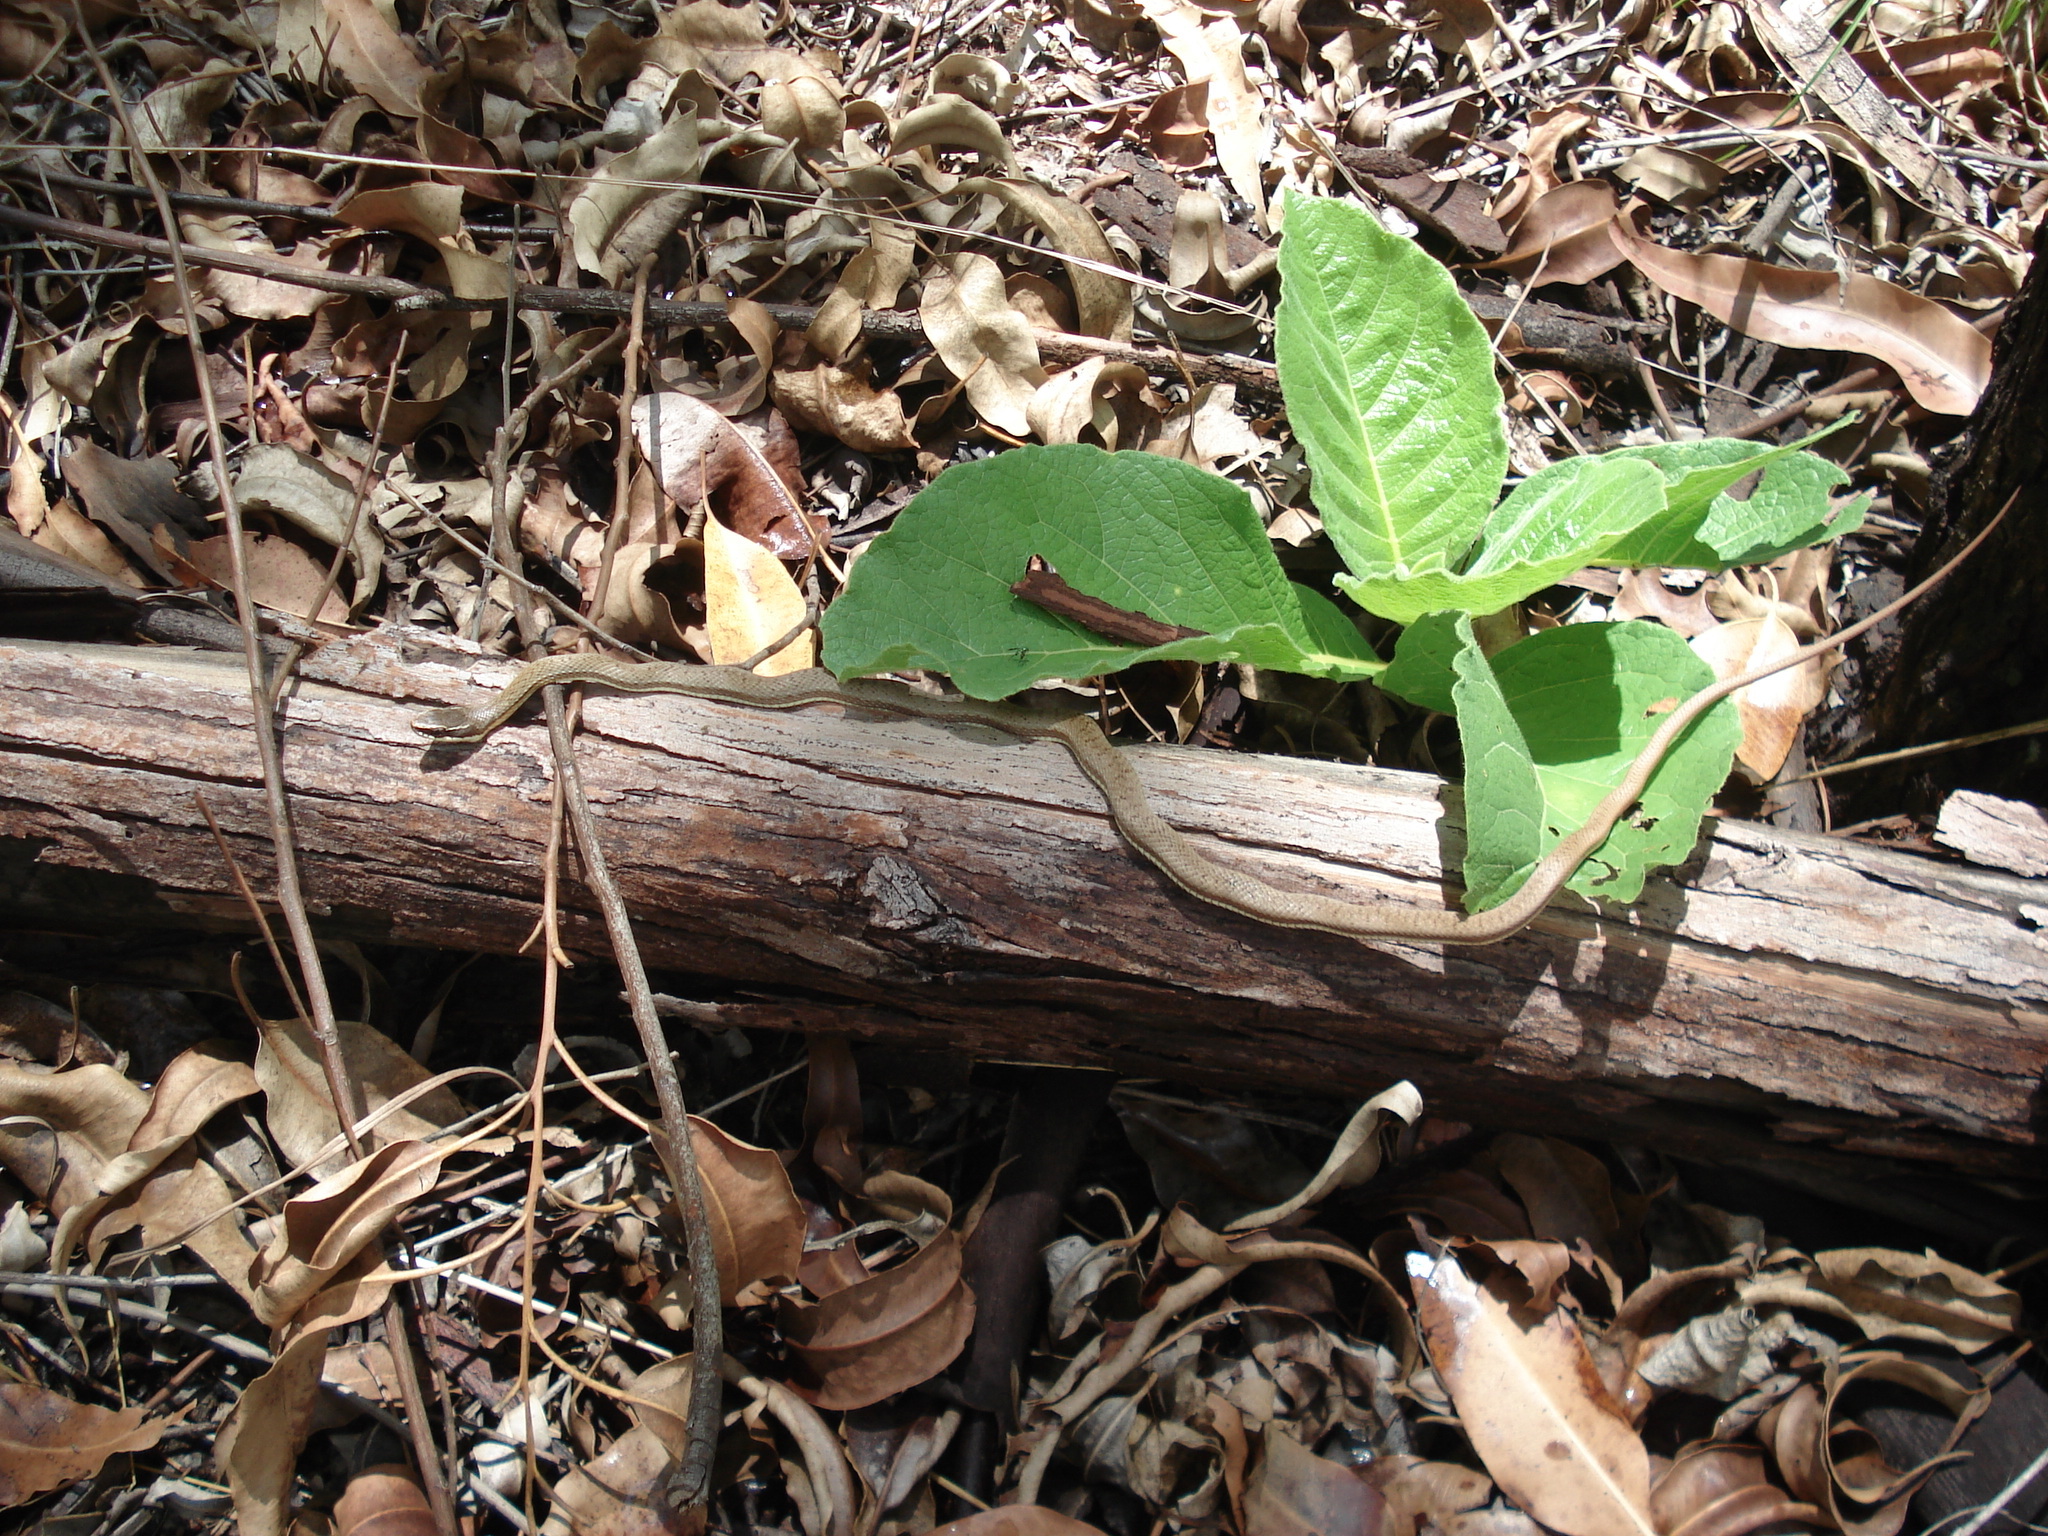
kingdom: Animalia
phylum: Chordata
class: Squamata
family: Colubridae
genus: Philodryas
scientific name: Philodryas nattereri
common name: Paraguay green racer
